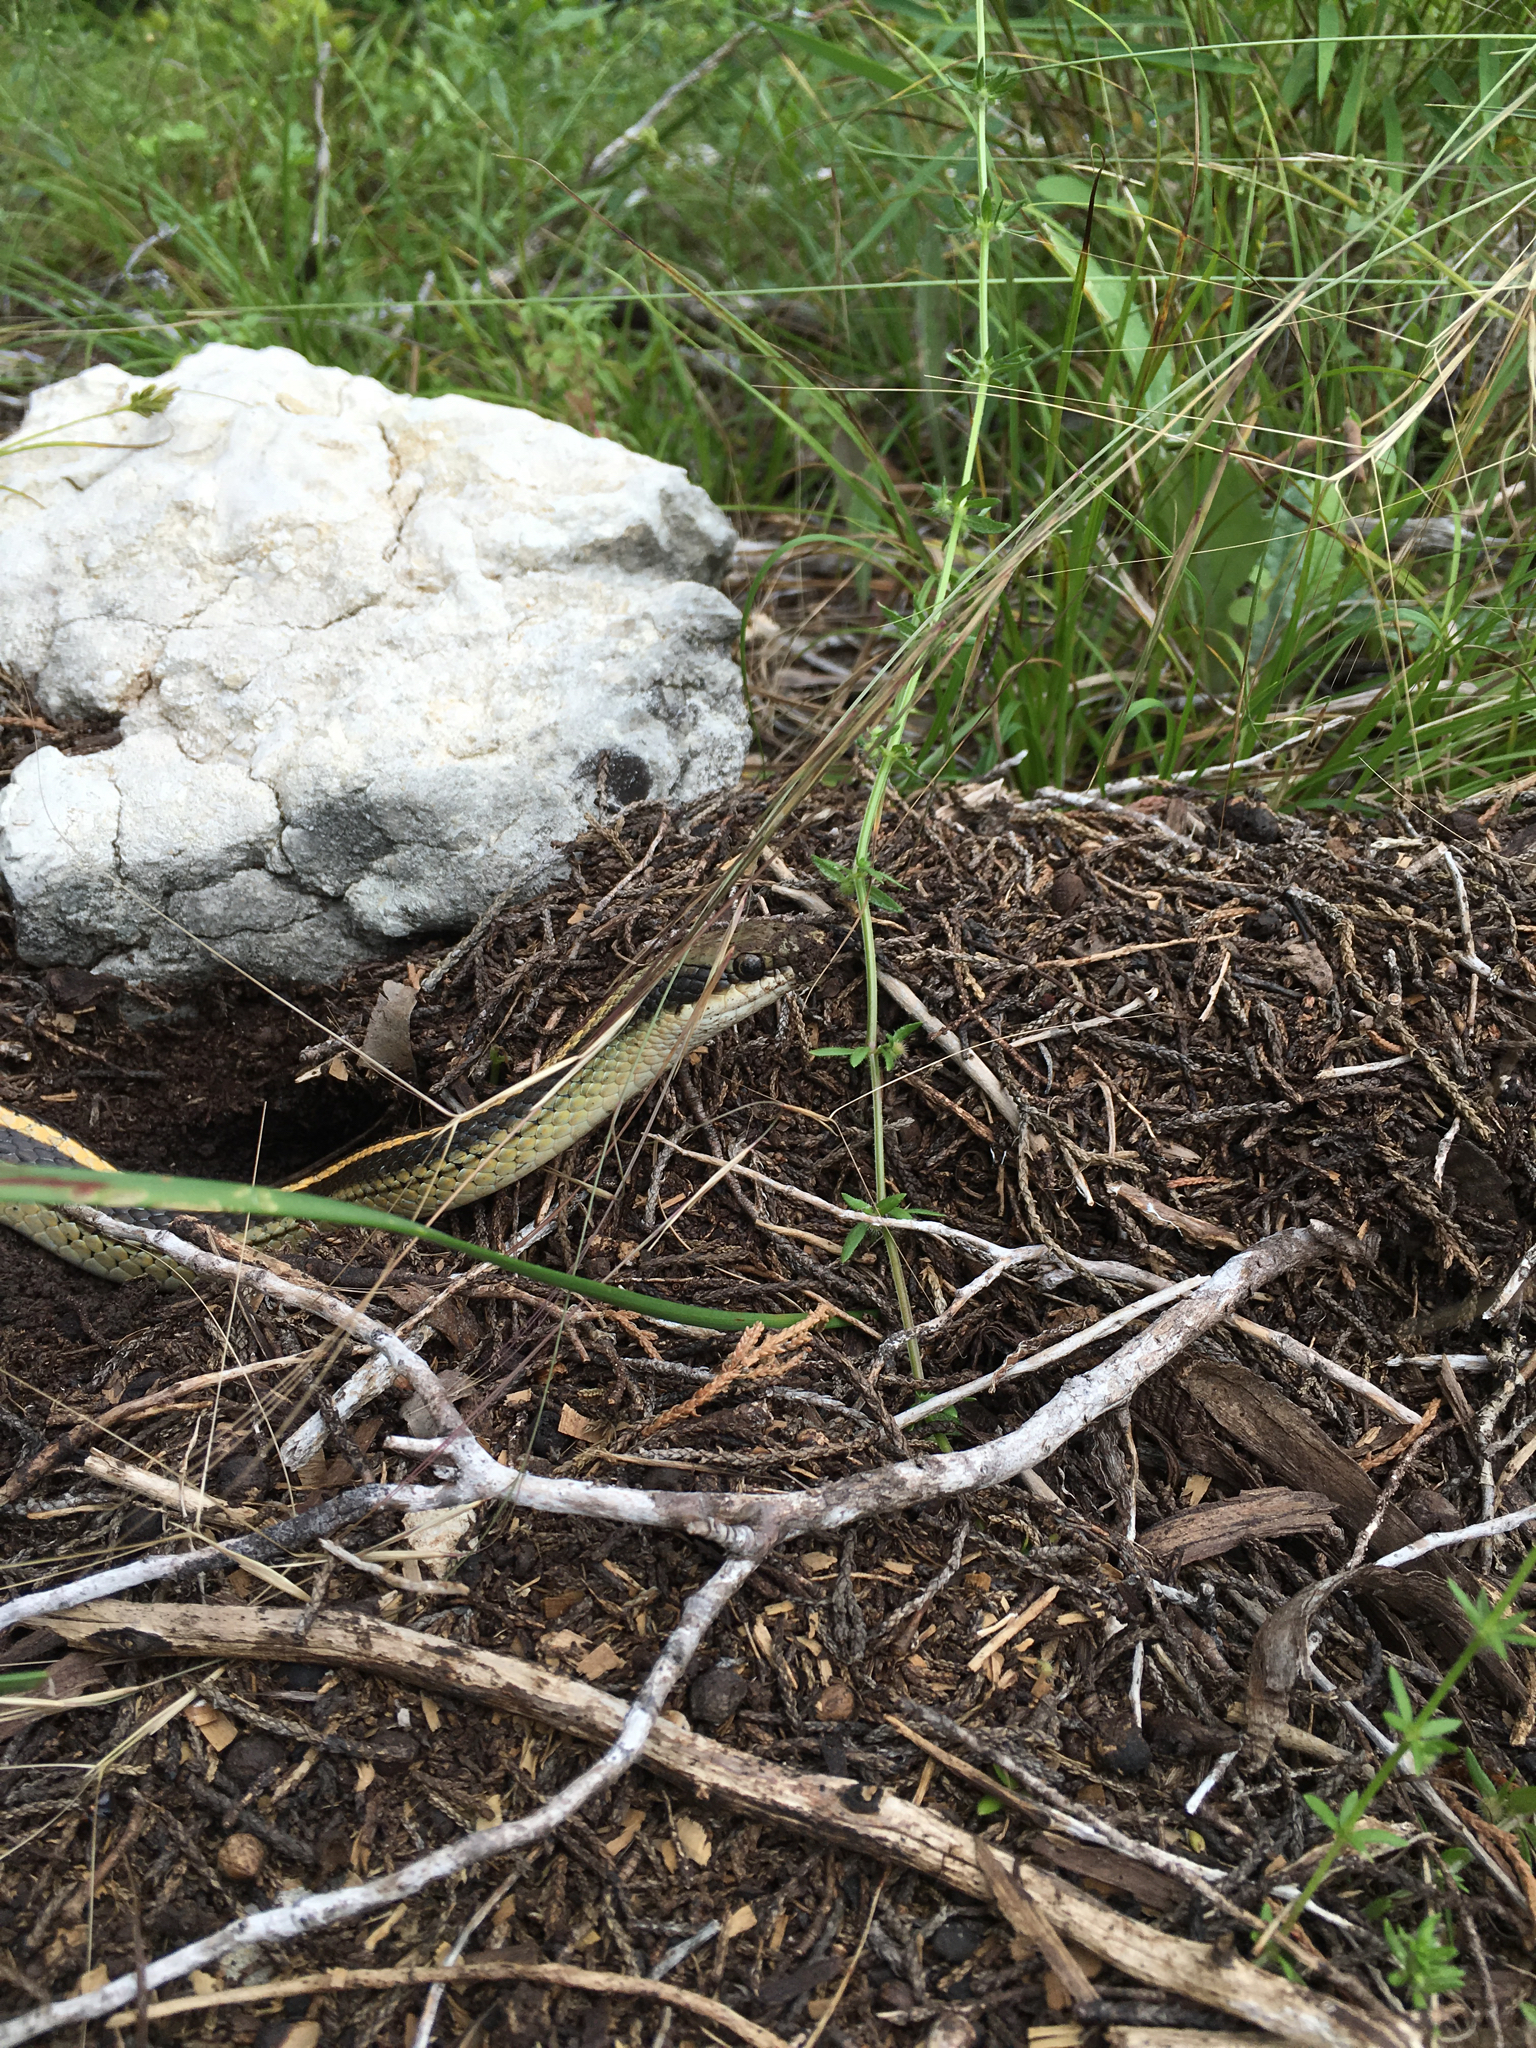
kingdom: Animalia
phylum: Chordata
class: Squamata
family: Colubridae
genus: Salvadora
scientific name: Salvadora lineata
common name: Texas patchnose snake
